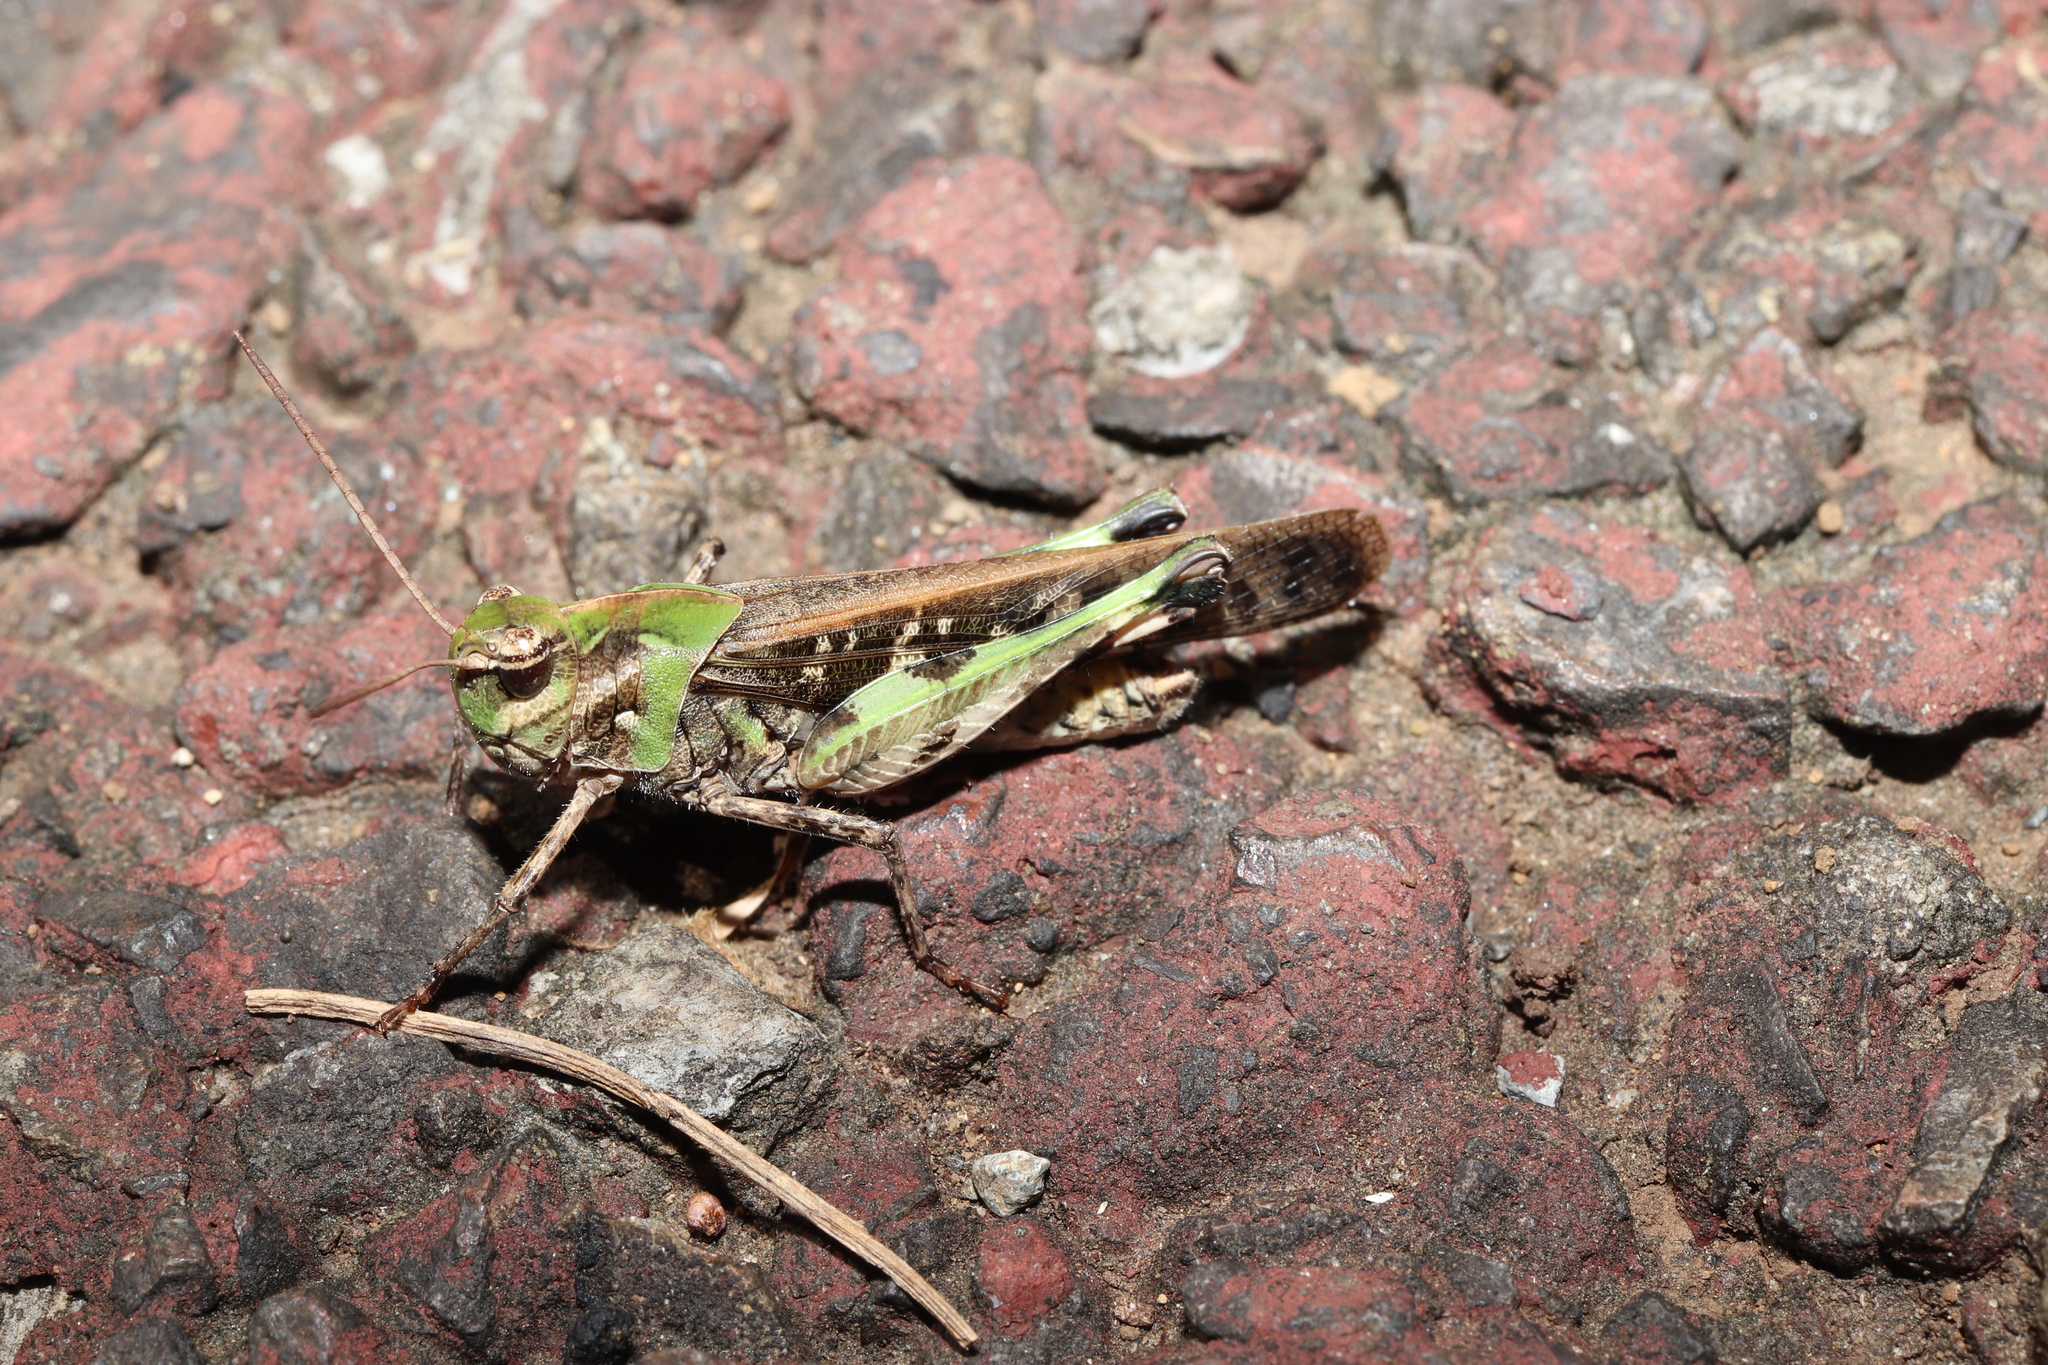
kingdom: Animalia
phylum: Arthropoda
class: Insecta
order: Orthoptera
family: Acrididae
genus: Oedaleus
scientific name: Oedaleus infernalis
